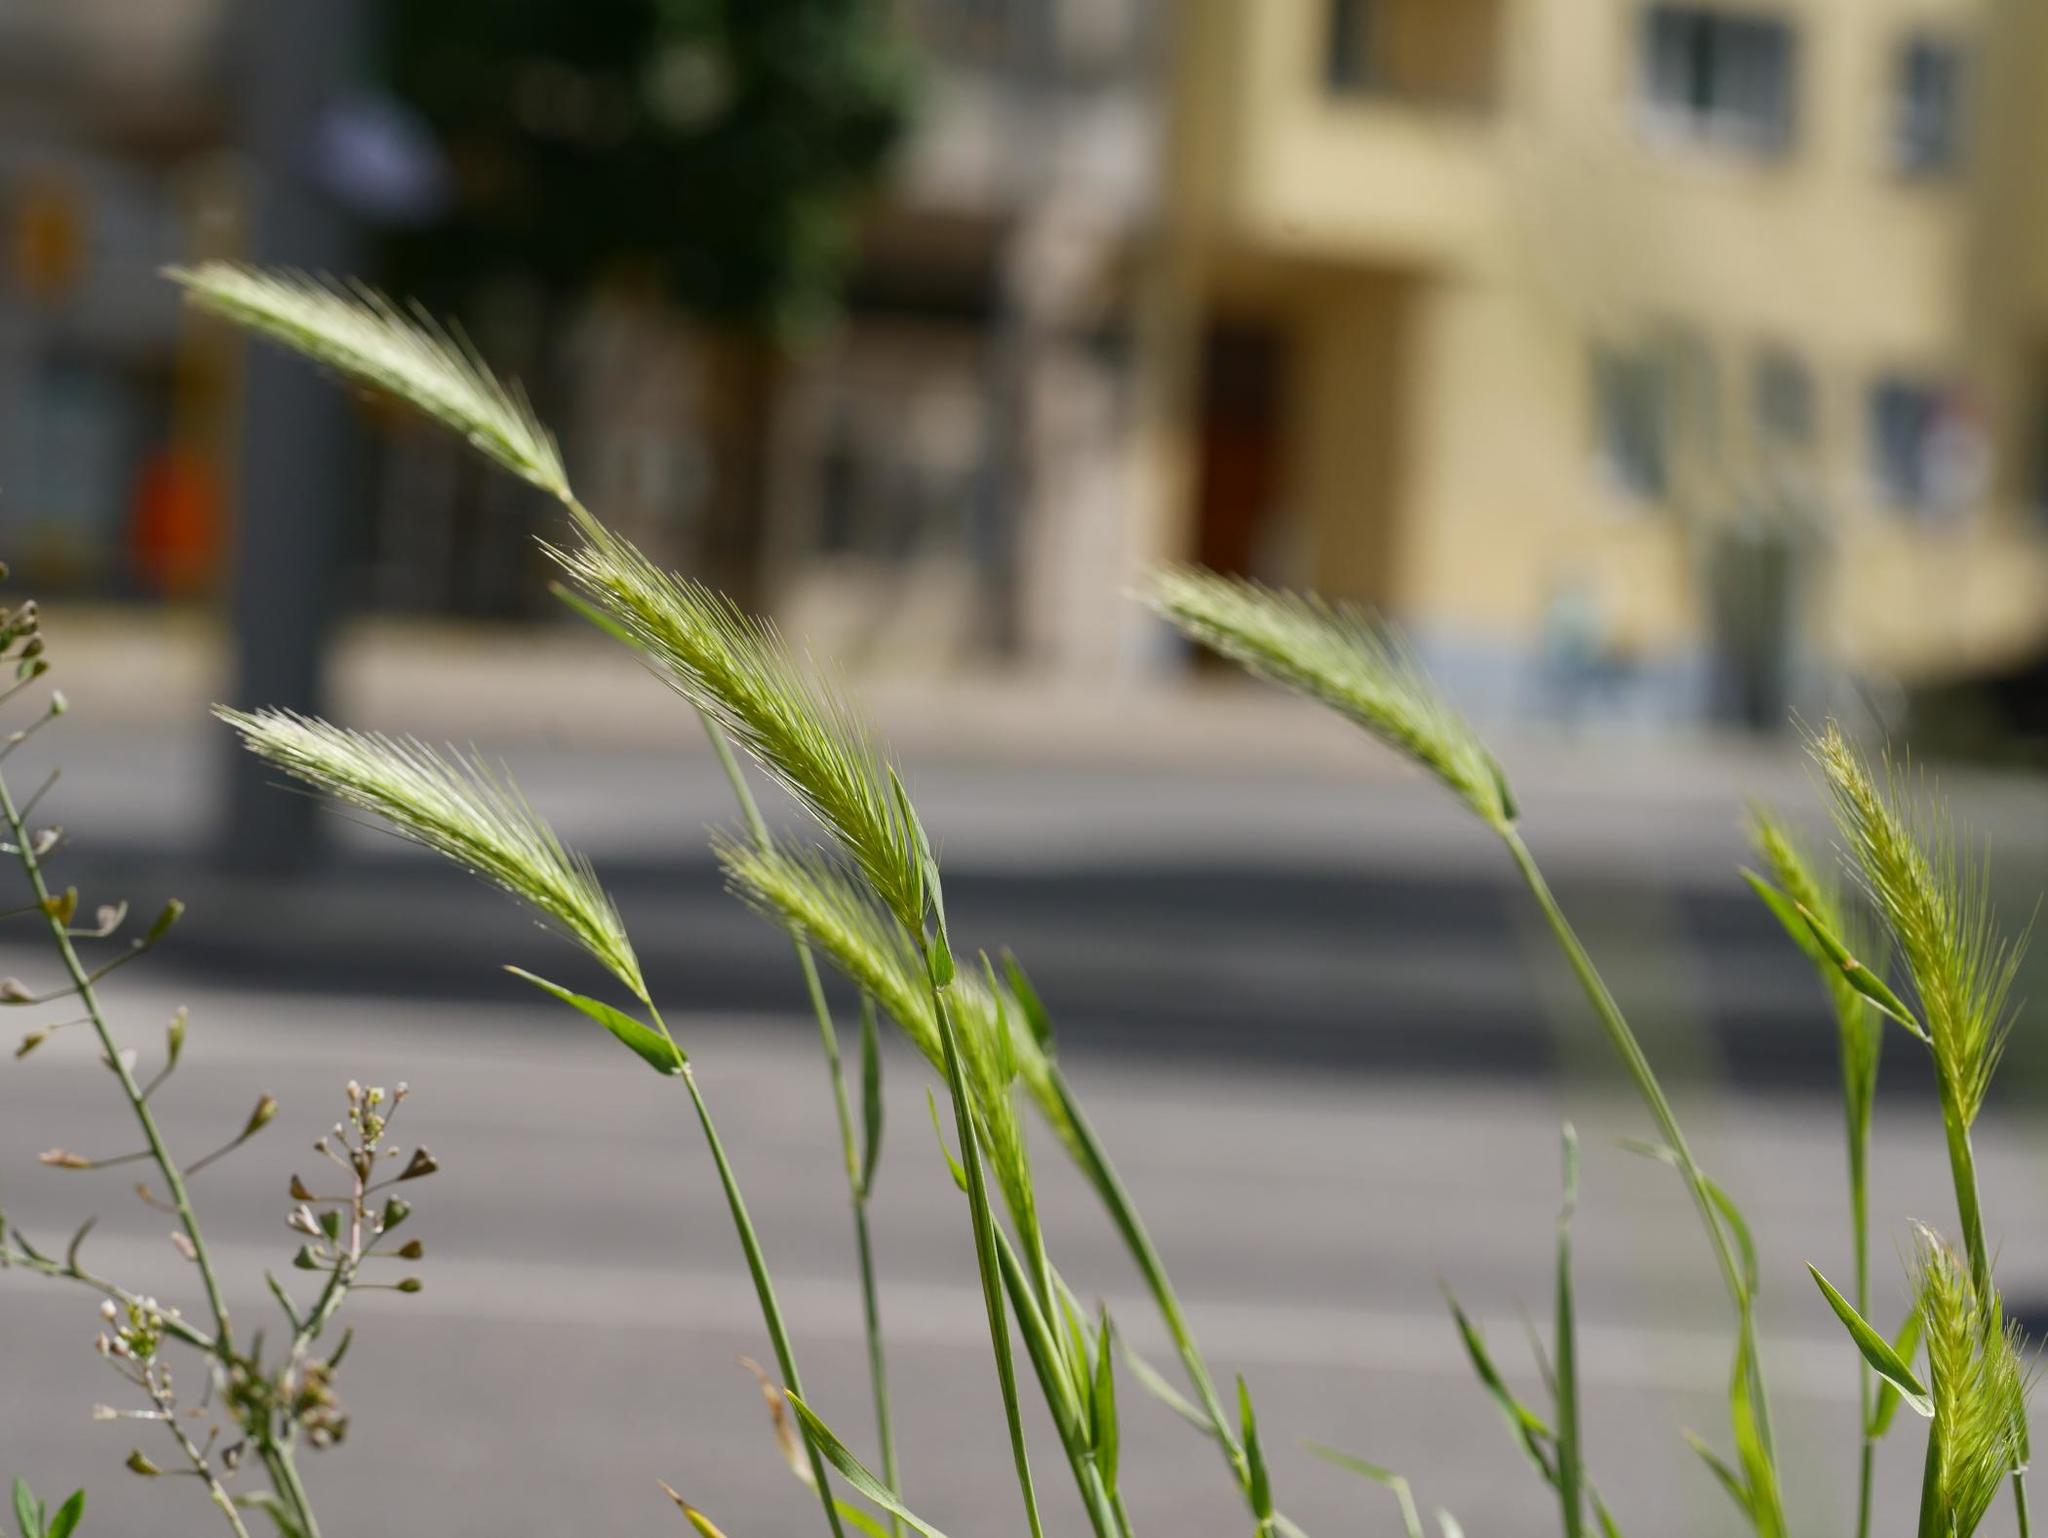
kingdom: Plantae
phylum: Tracheophyta
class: Liliopsida
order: Poales
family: Poaceae
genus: Hordeum
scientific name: Hordeum murinum
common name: Wall barley
